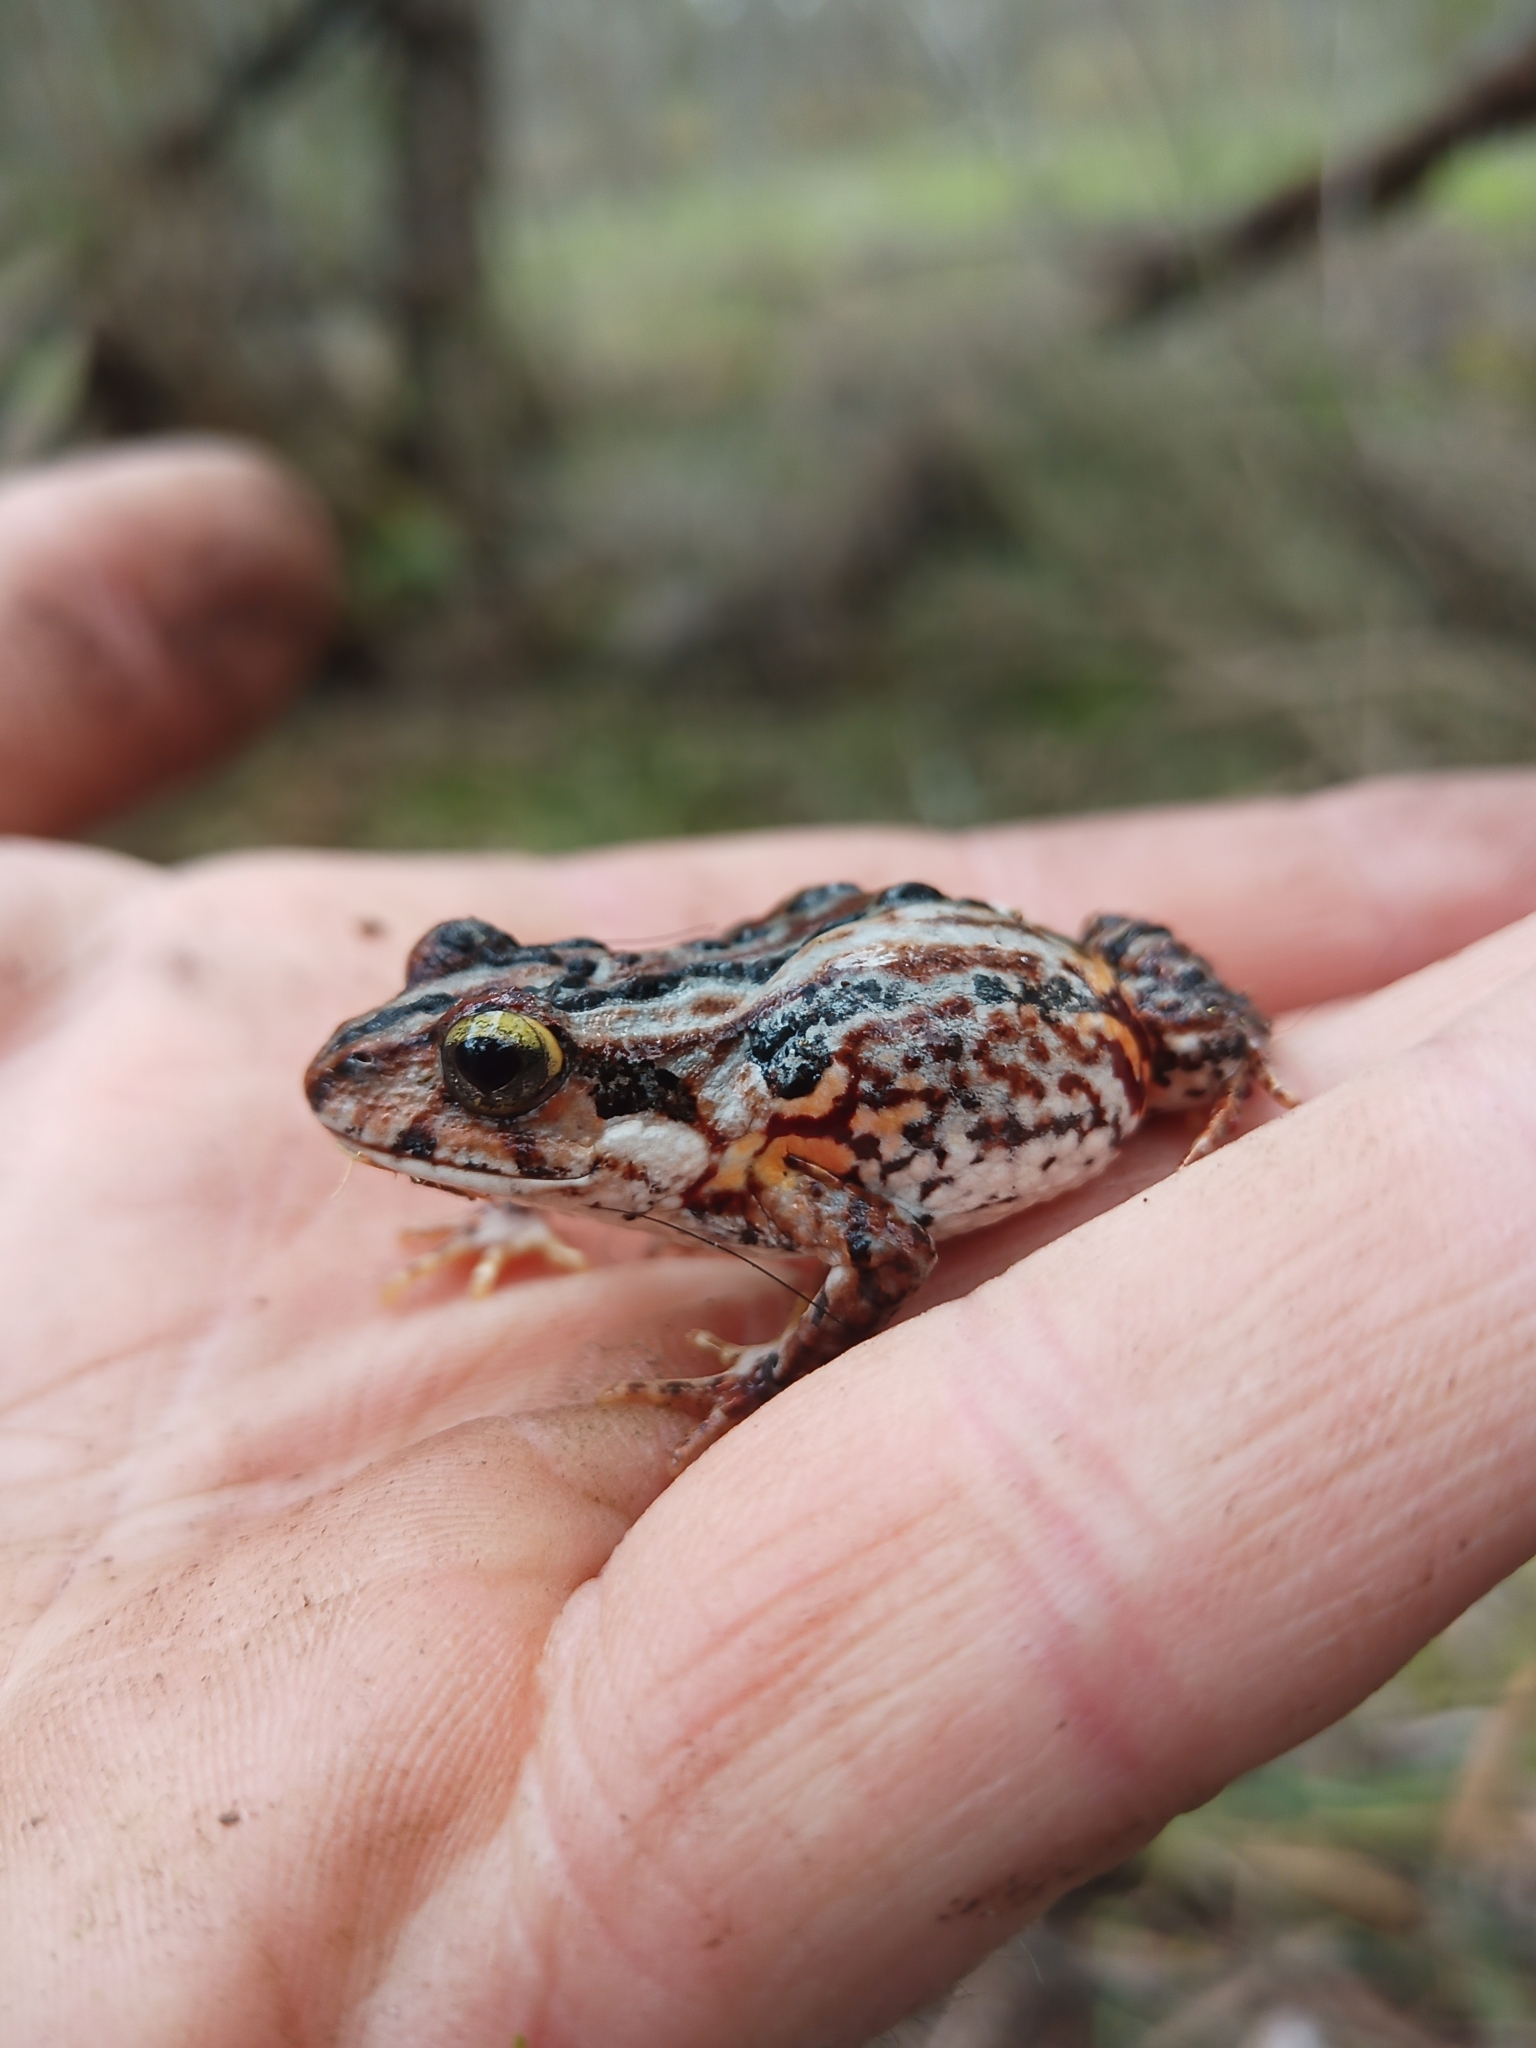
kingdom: Animalia
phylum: Chordata
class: Amphibia
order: Anura
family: Myobatrachidae
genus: Crinia
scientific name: Crinia georgiana
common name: Quacking frog
